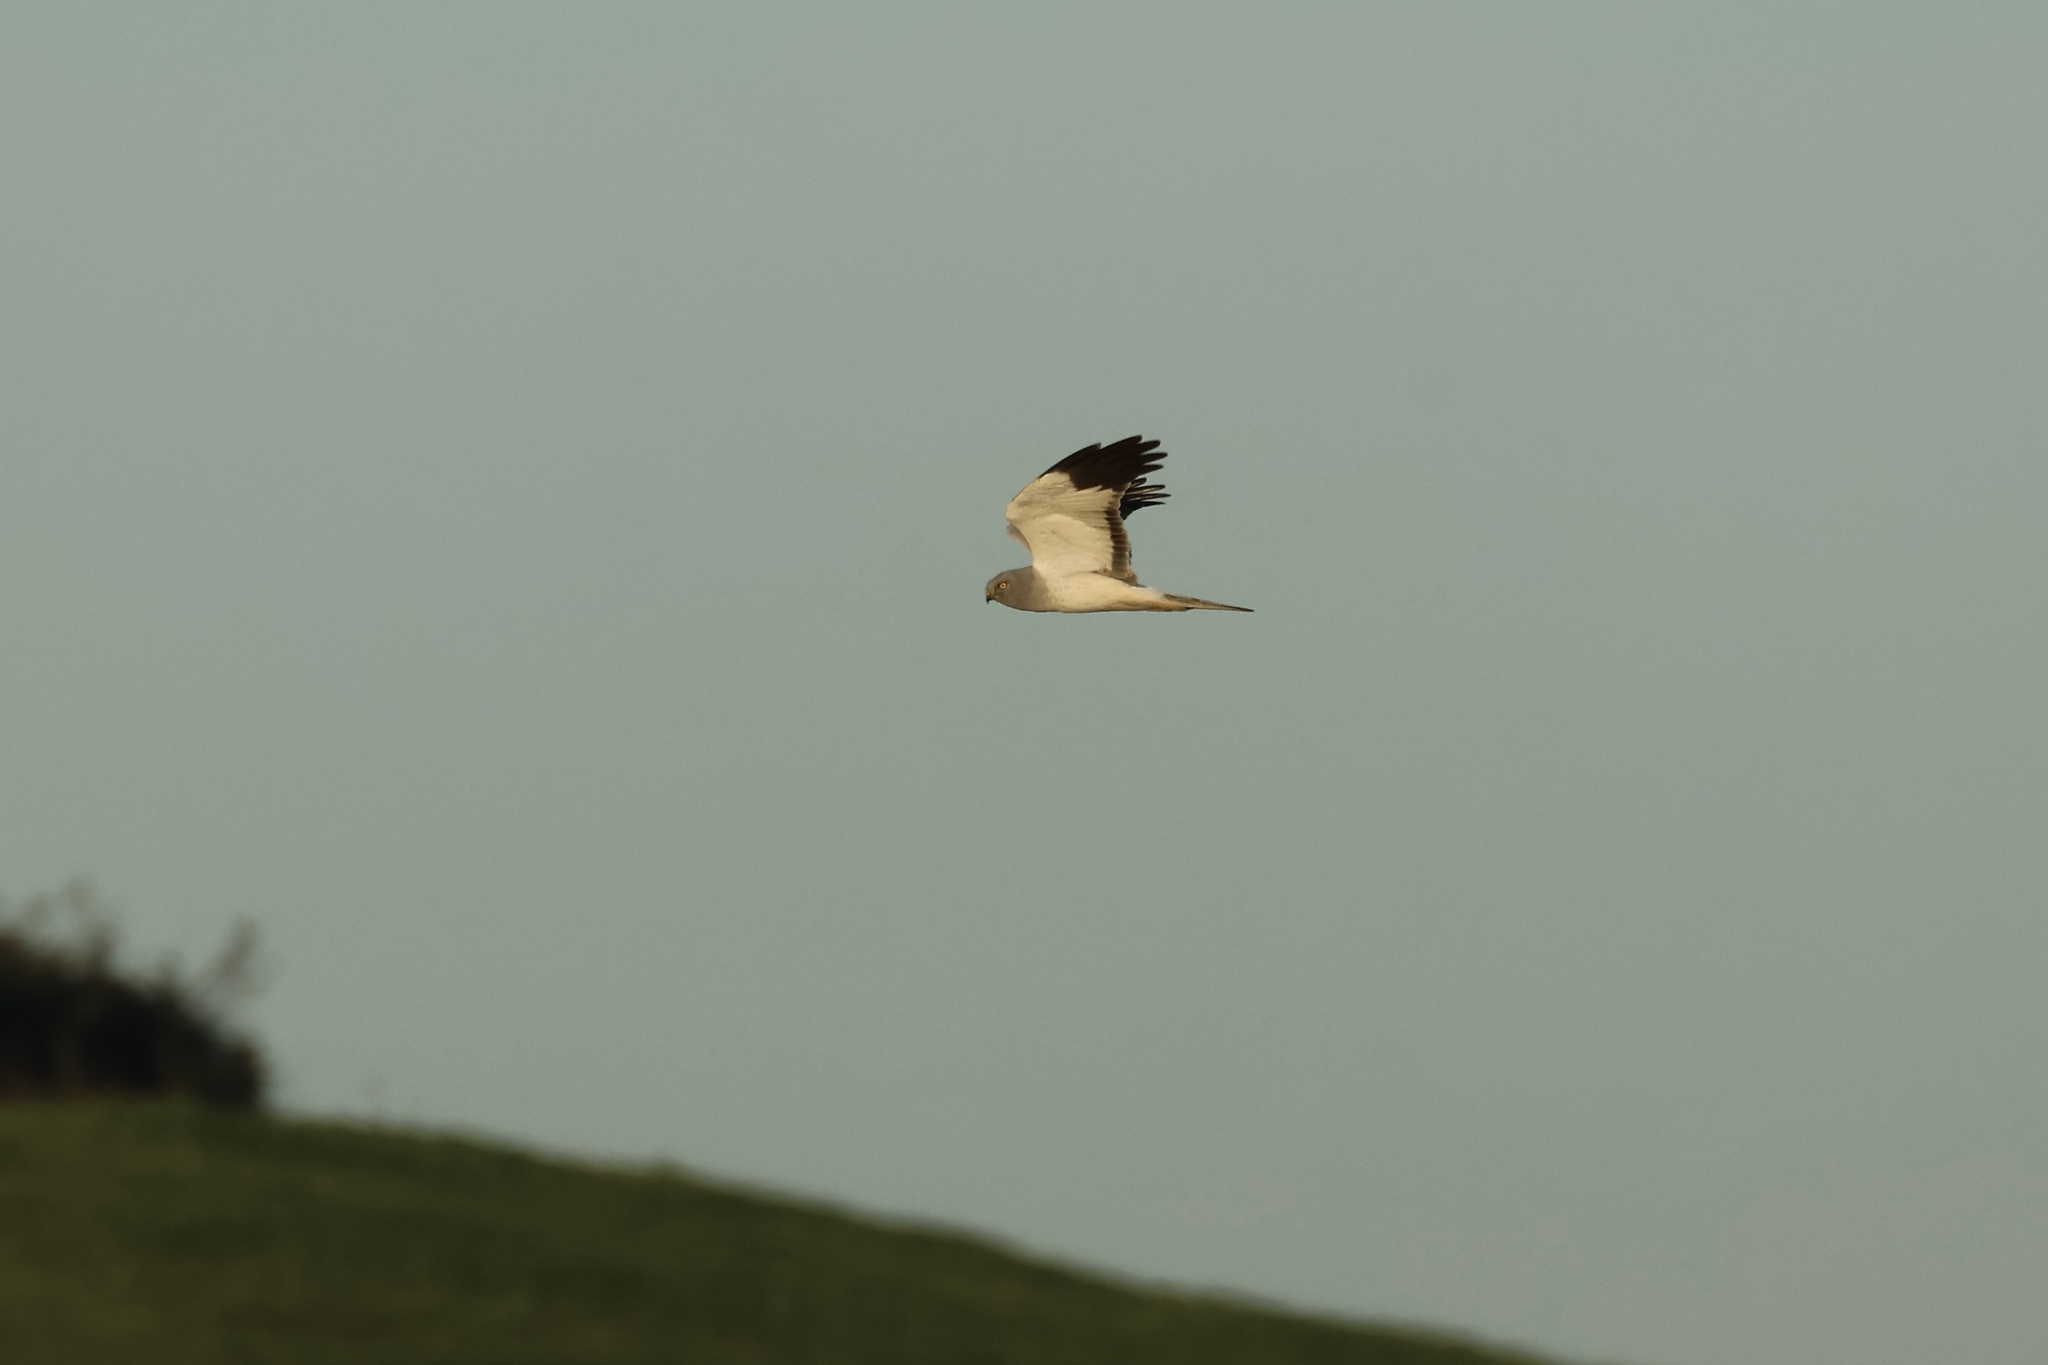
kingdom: Animalia
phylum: Chordata
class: Aves
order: Accipitriformes
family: Accipitridae
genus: Circus
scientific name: Circus cyaneus
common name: Hen harrier
